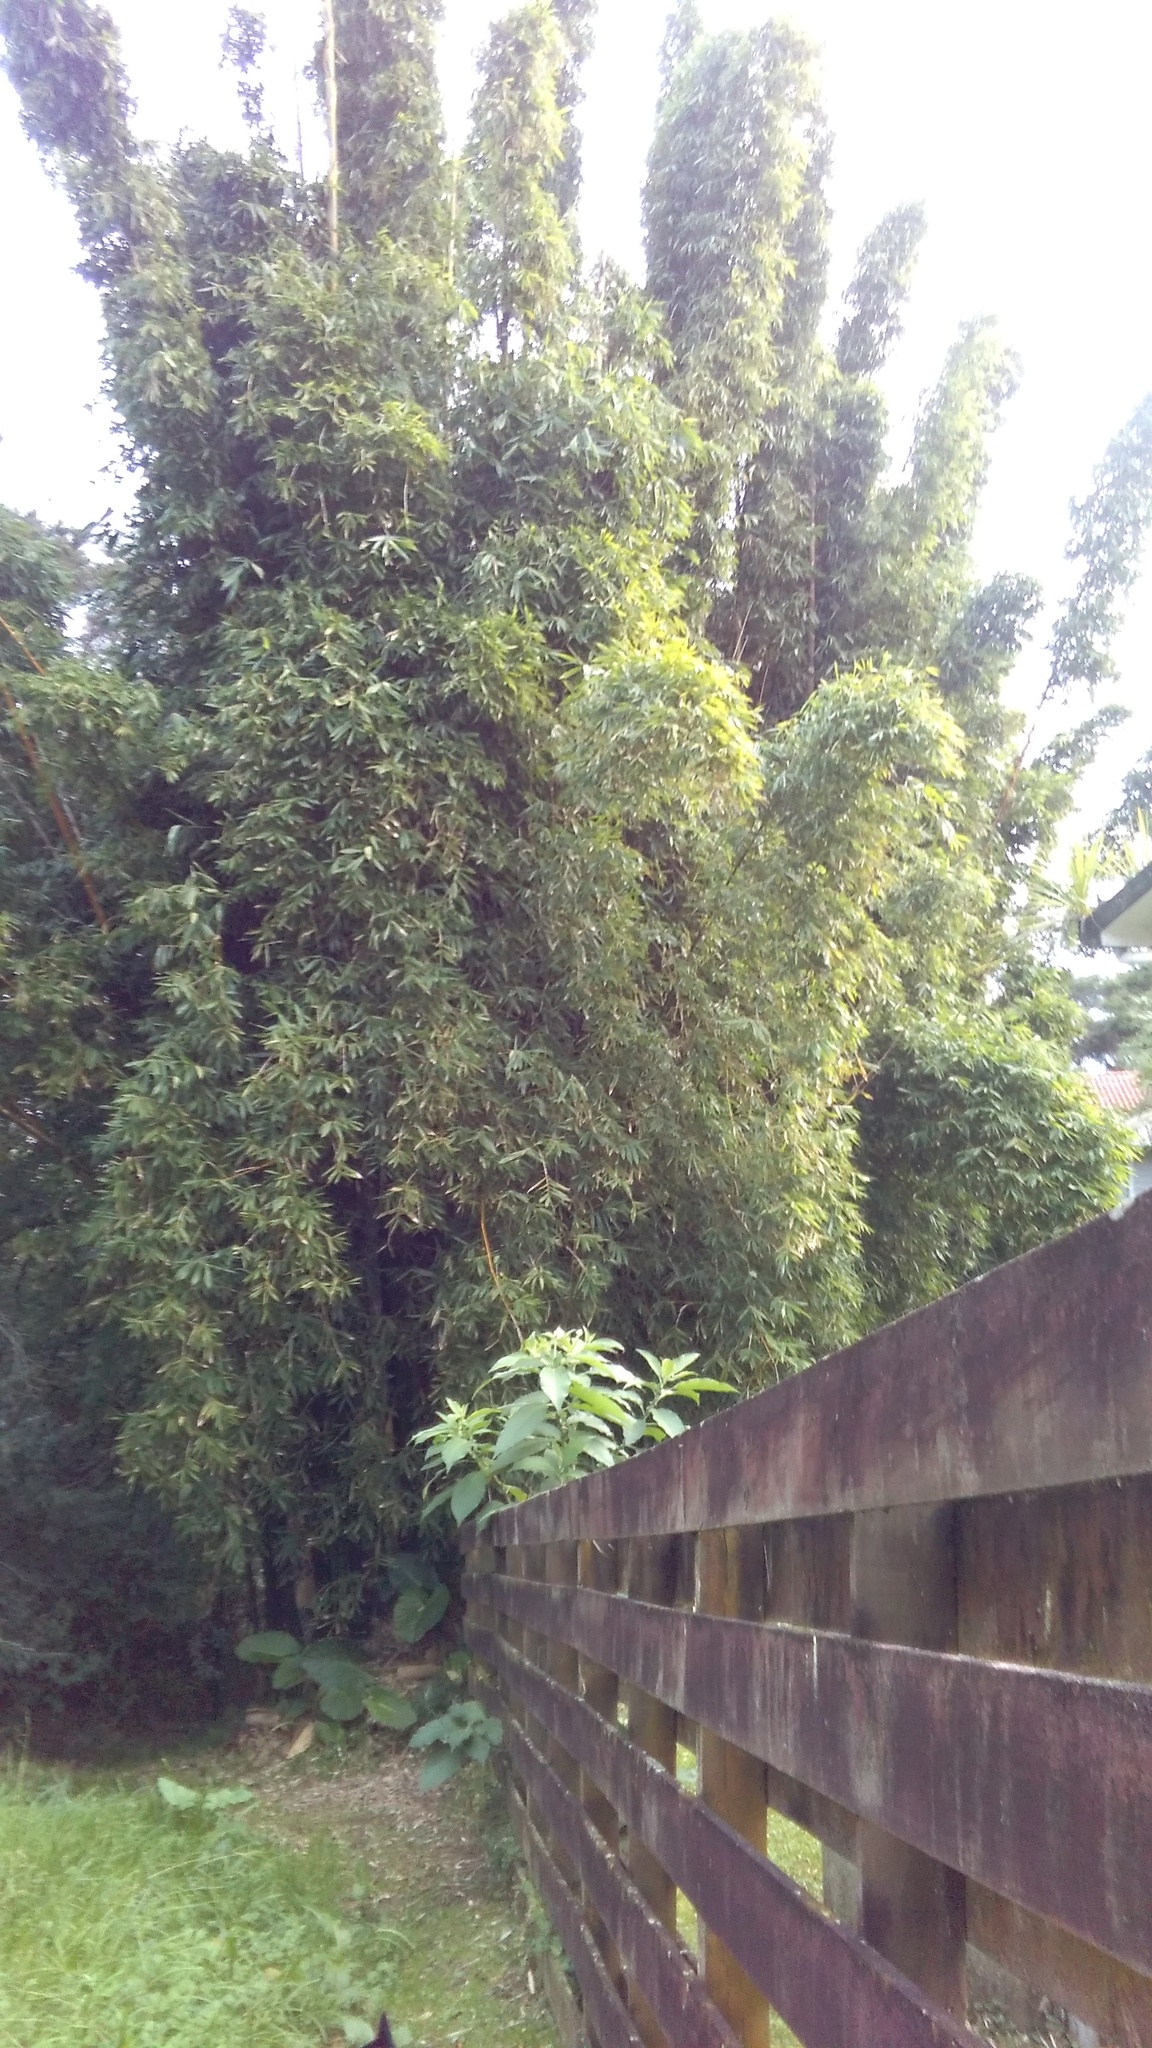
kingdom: Plantae
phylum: Tracheophyta
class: Magnoliopsida
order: Solanales
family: Solanaceae
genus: Solanum
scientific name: Solanum mauritianum
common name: Earleaf nightshade
